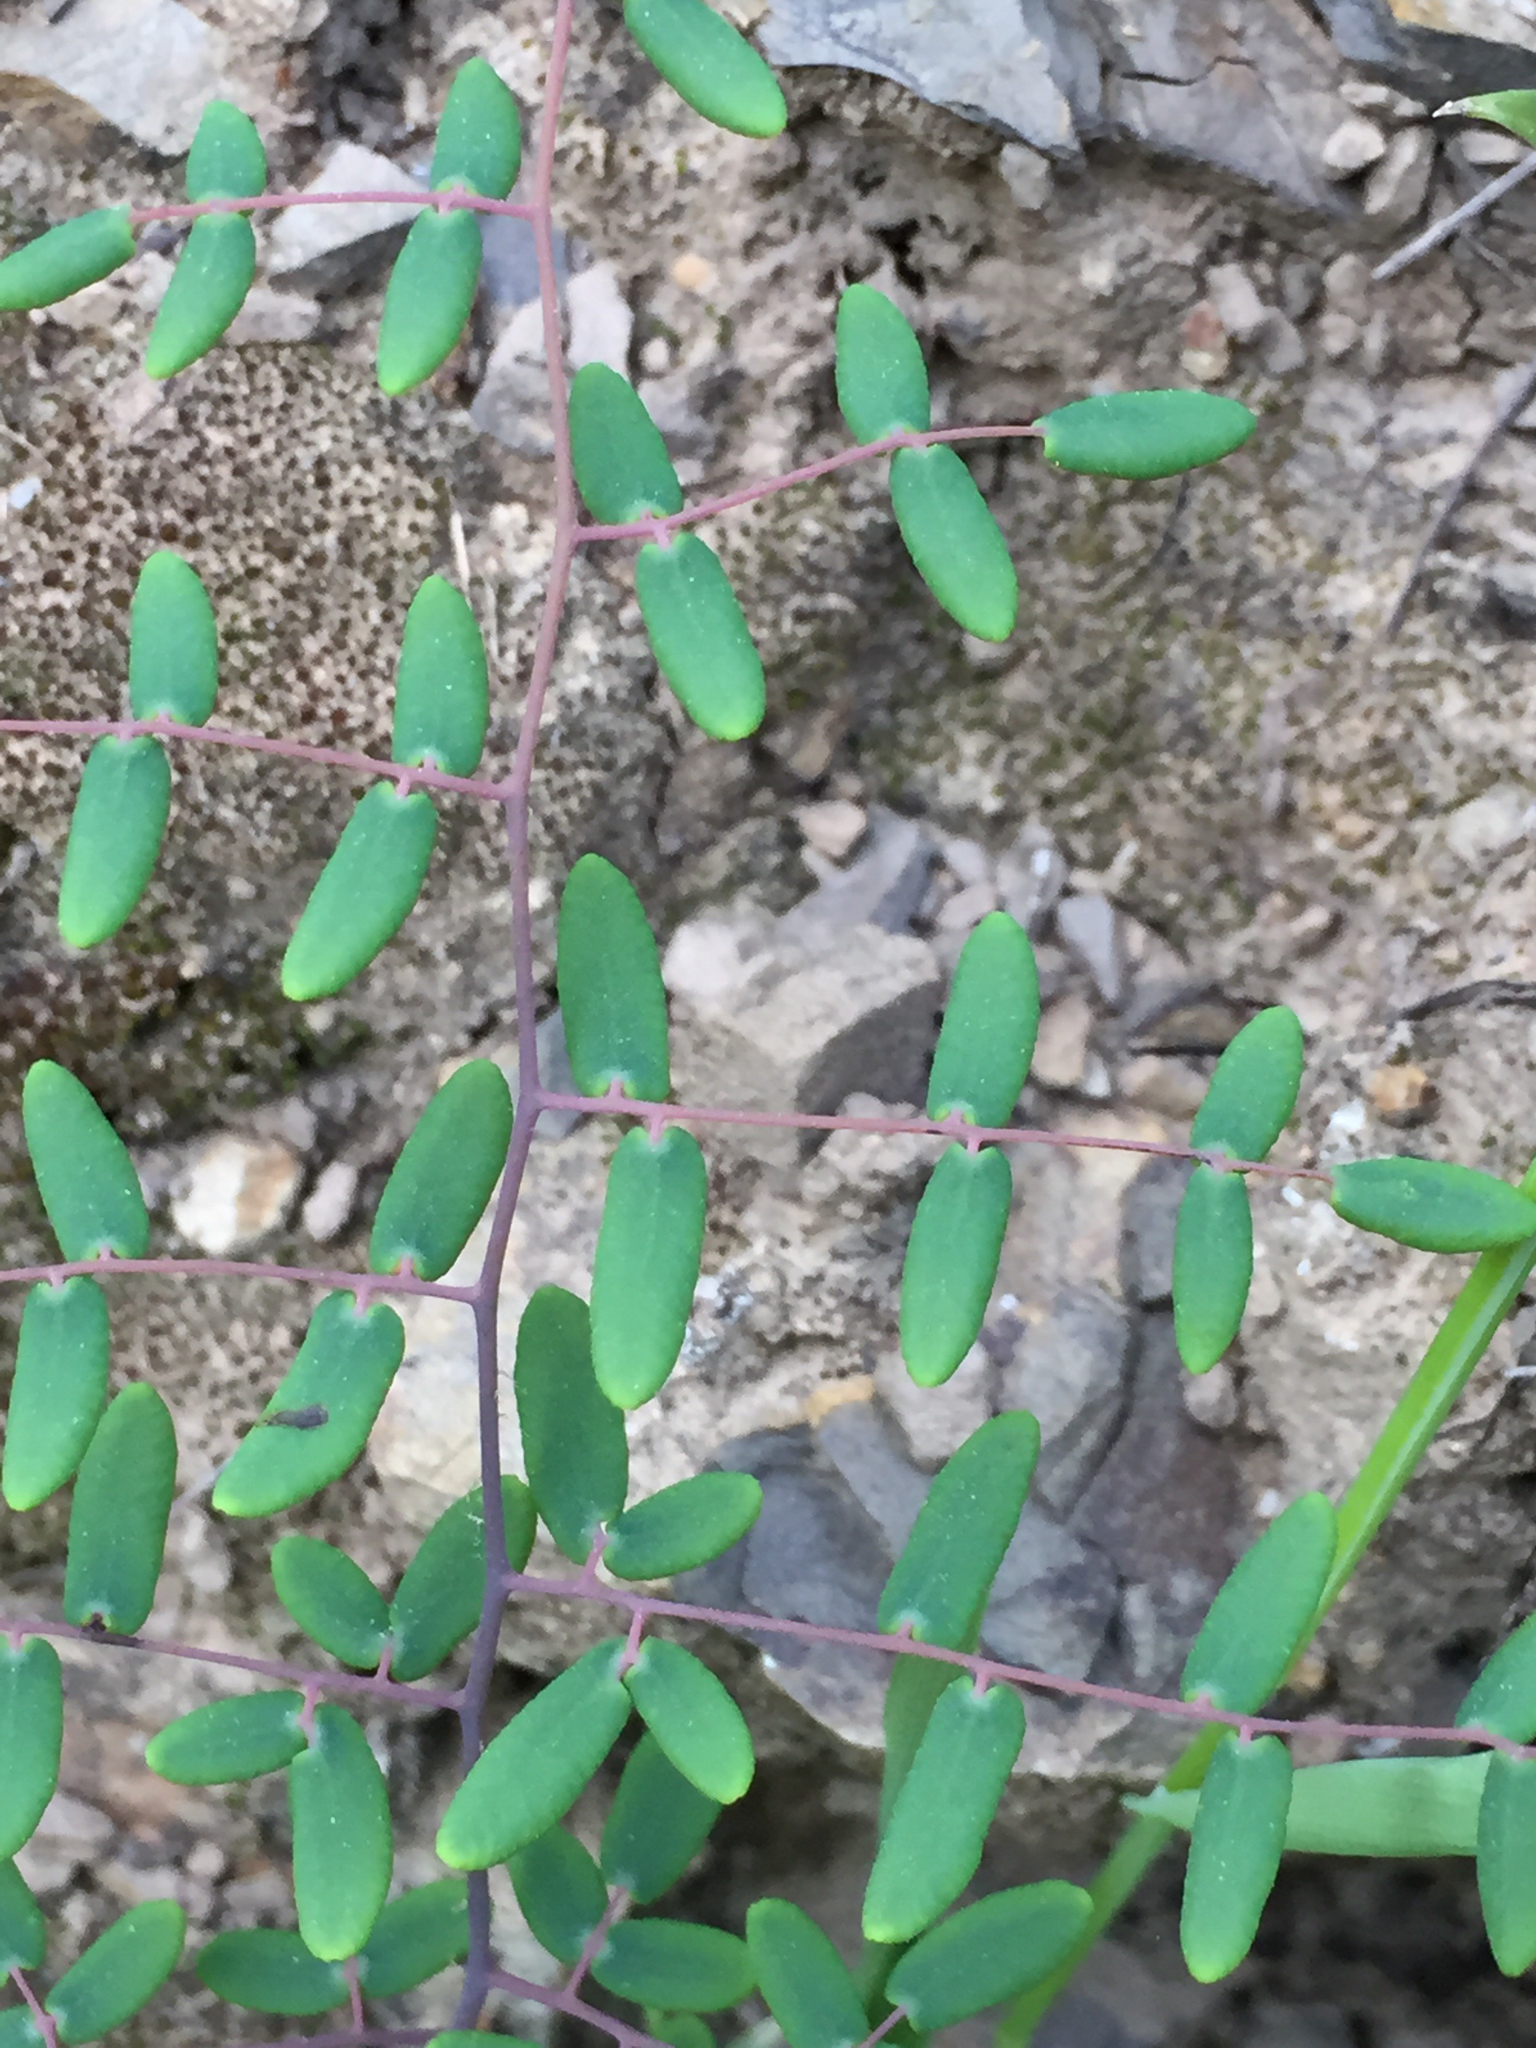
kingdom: Plantae
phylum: Tracheophyta
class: Polypodiopsida
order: Polypodiales
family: Pteridaceae
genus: Pellaea
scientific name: Pellaea andromedifolia
